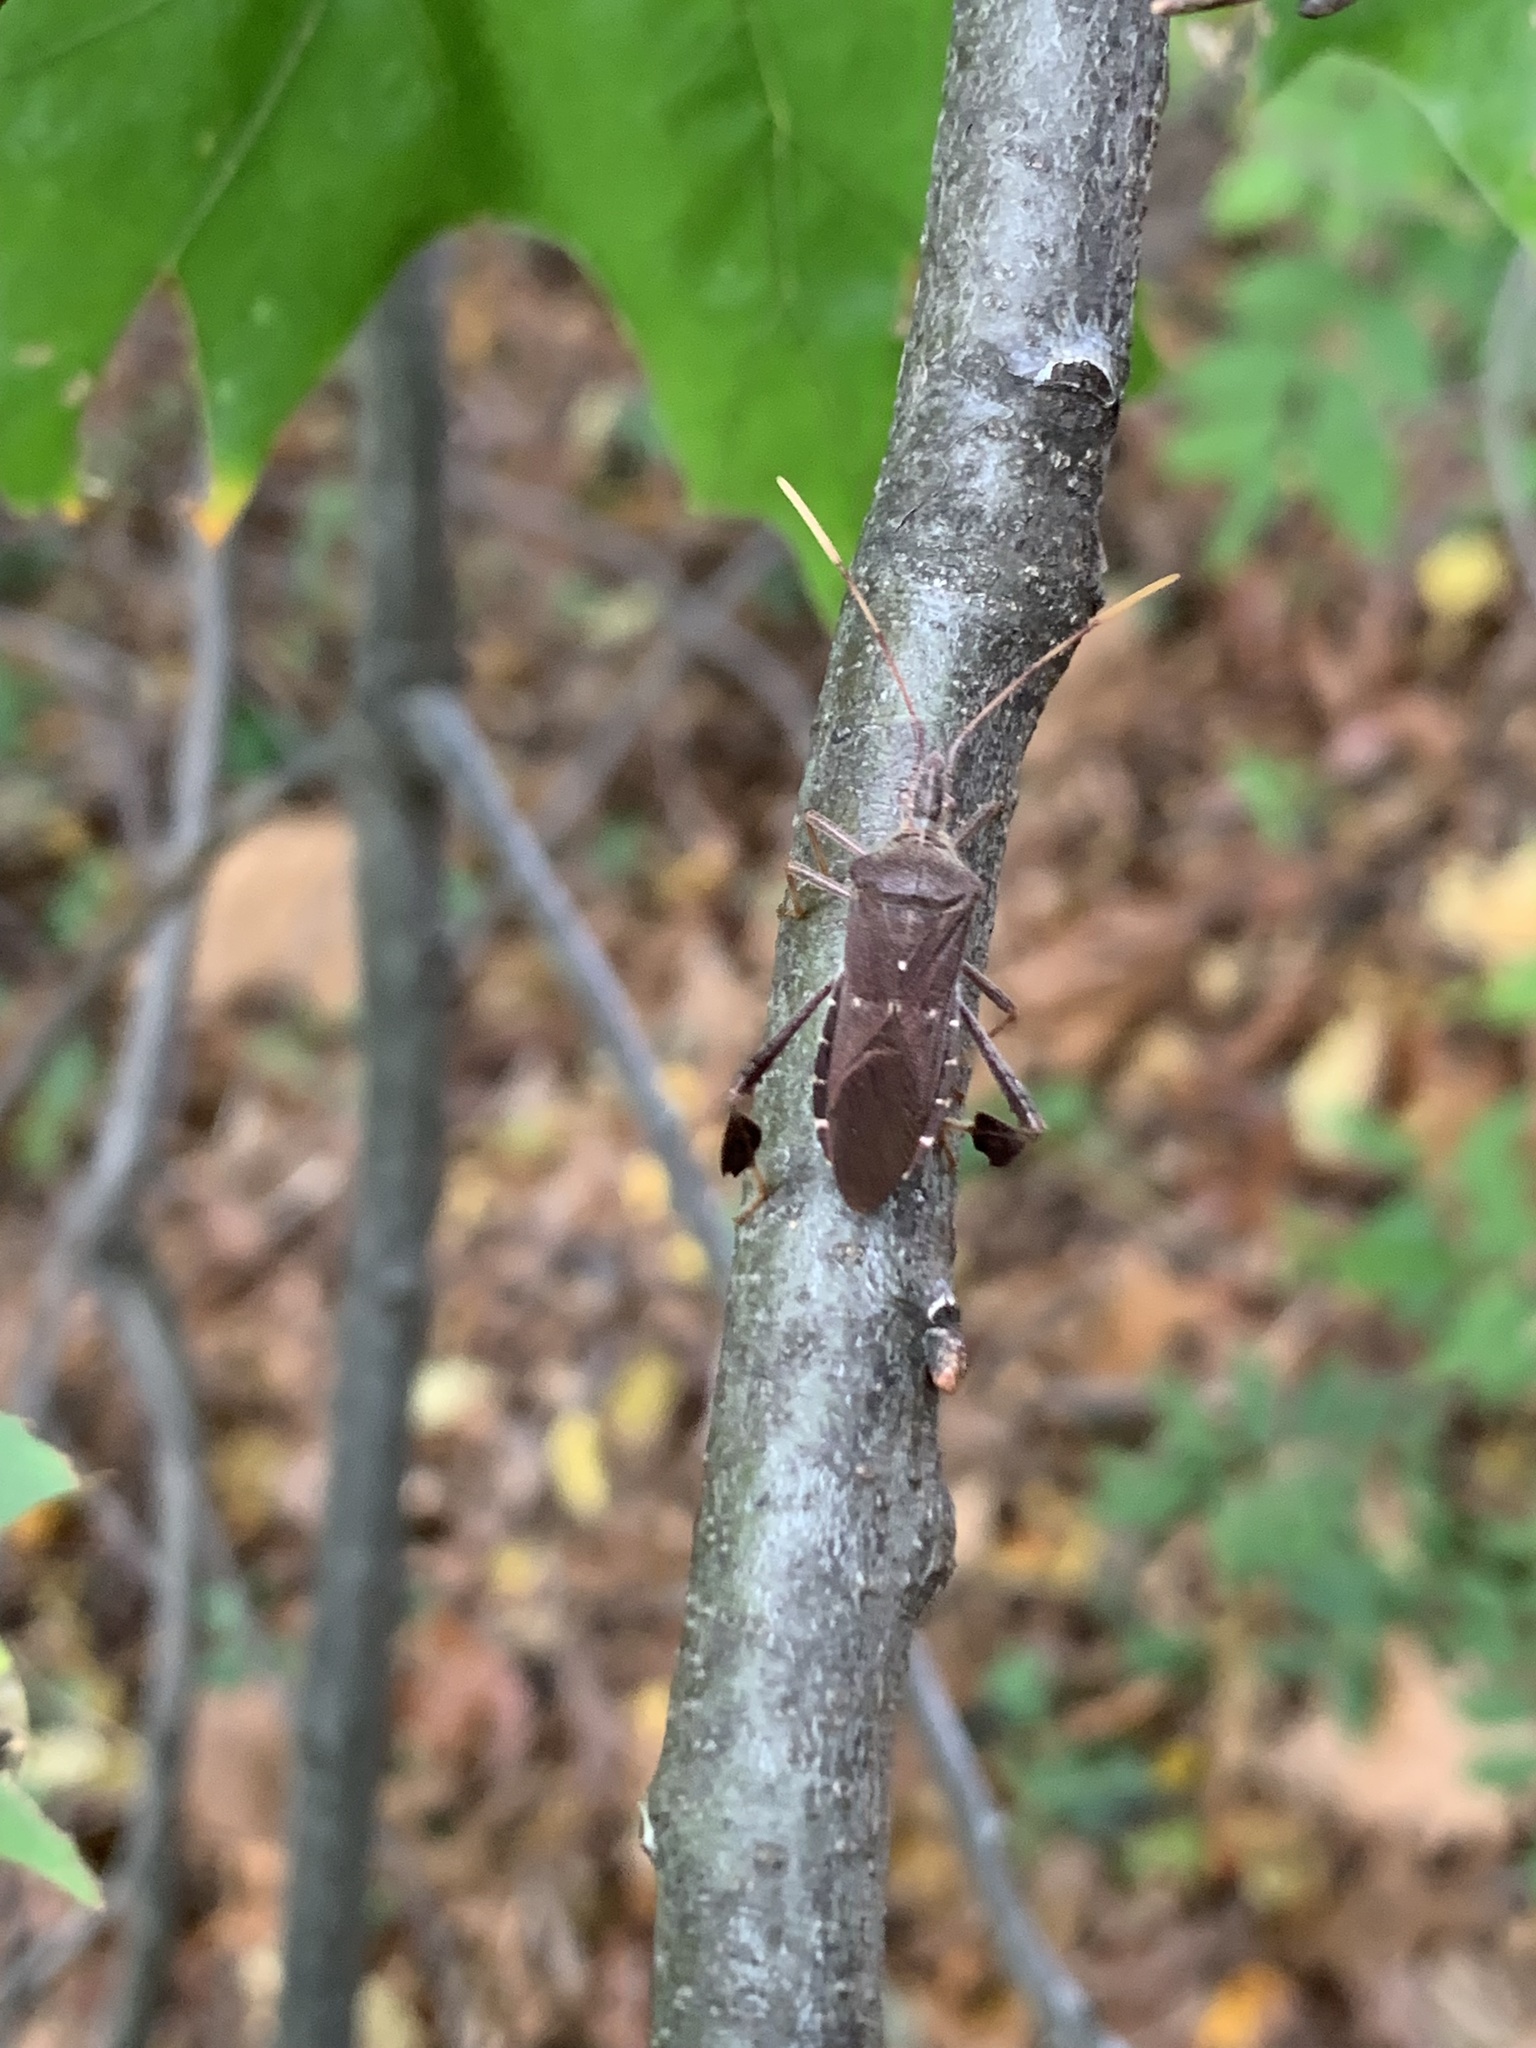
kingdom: Animalia
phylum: Arthropoda
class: Insecta
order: Hemiptera
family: Coreidae
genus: Leptoglossus
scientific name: Leptoglossus oppositus
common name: Northern leaf-footed bug
